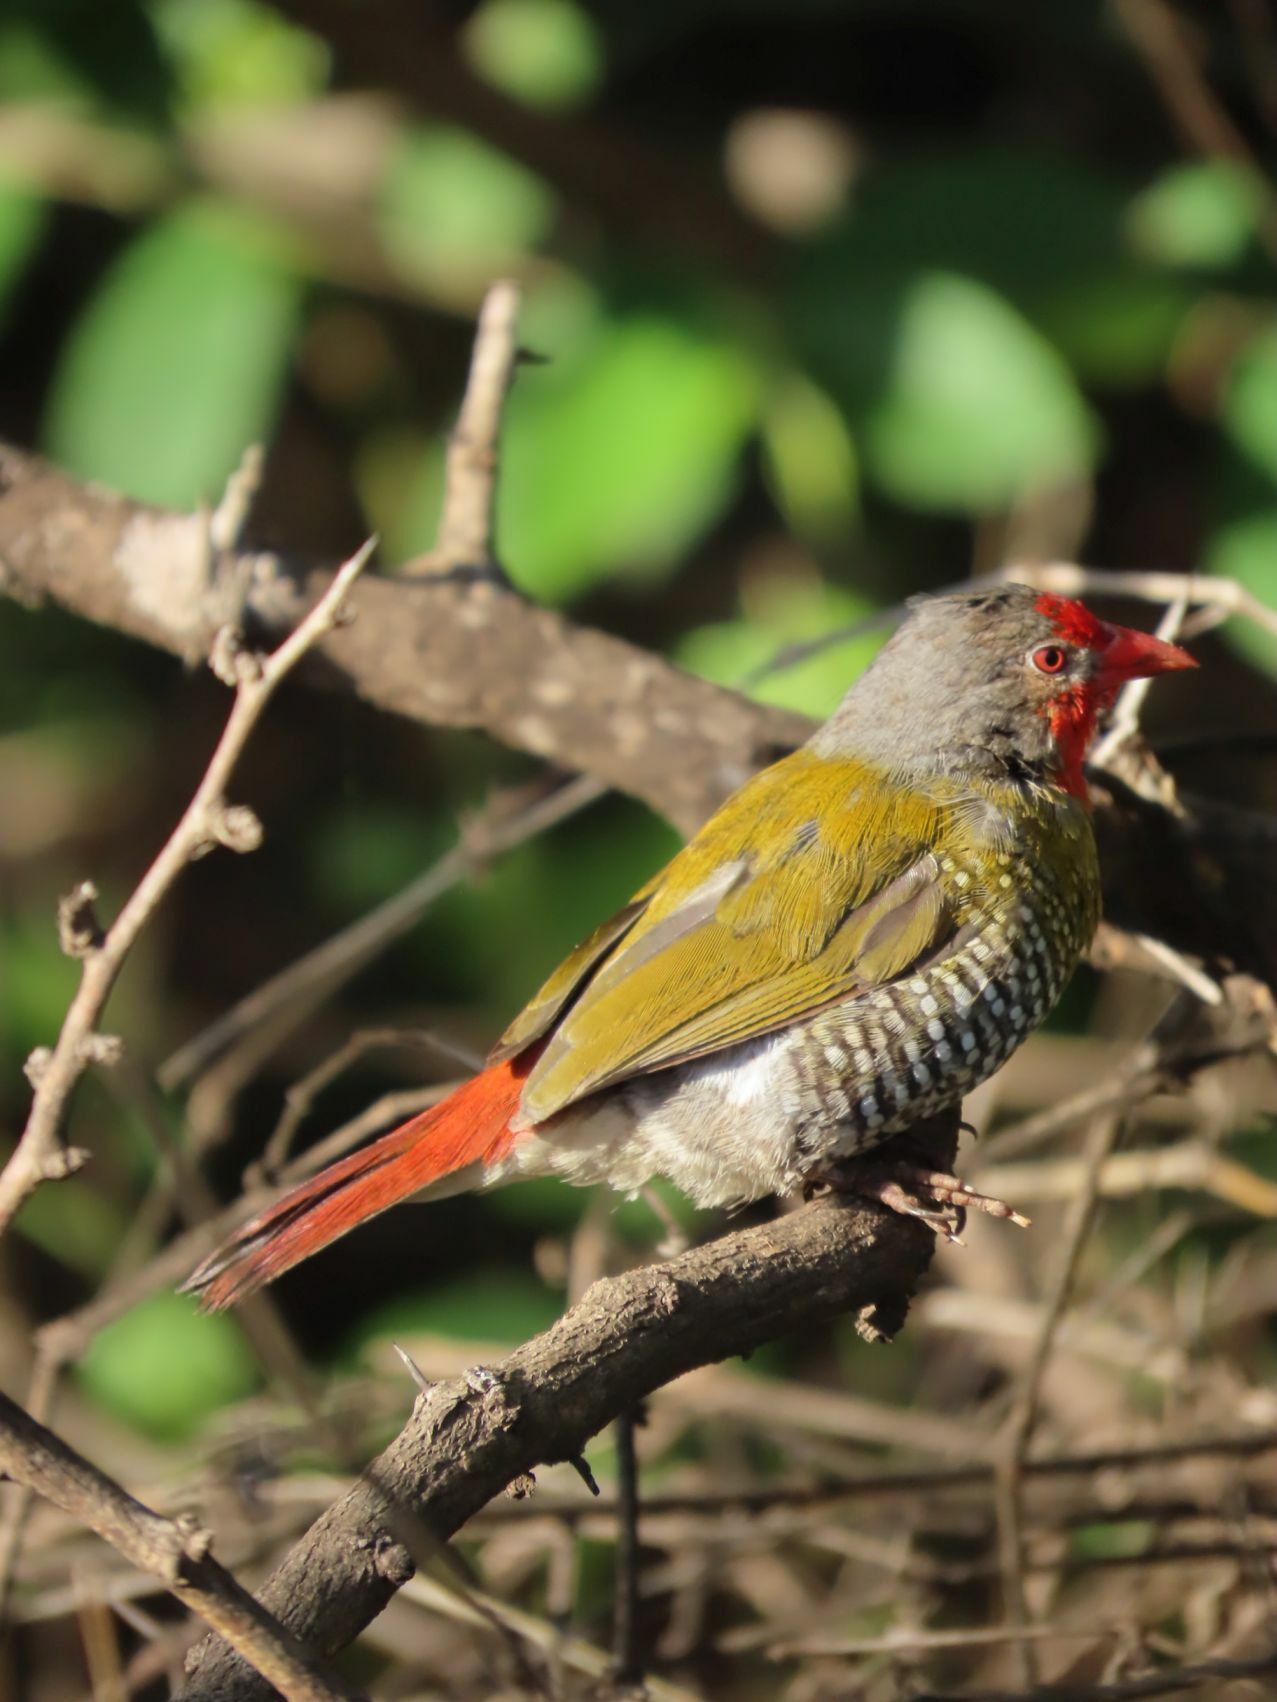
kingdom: Animalia
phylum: Chordata
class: Aves
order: Passeriformes
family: Estrildidae
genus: Pytilia
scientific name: Pytilia melba
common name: Green-winged pytilia
